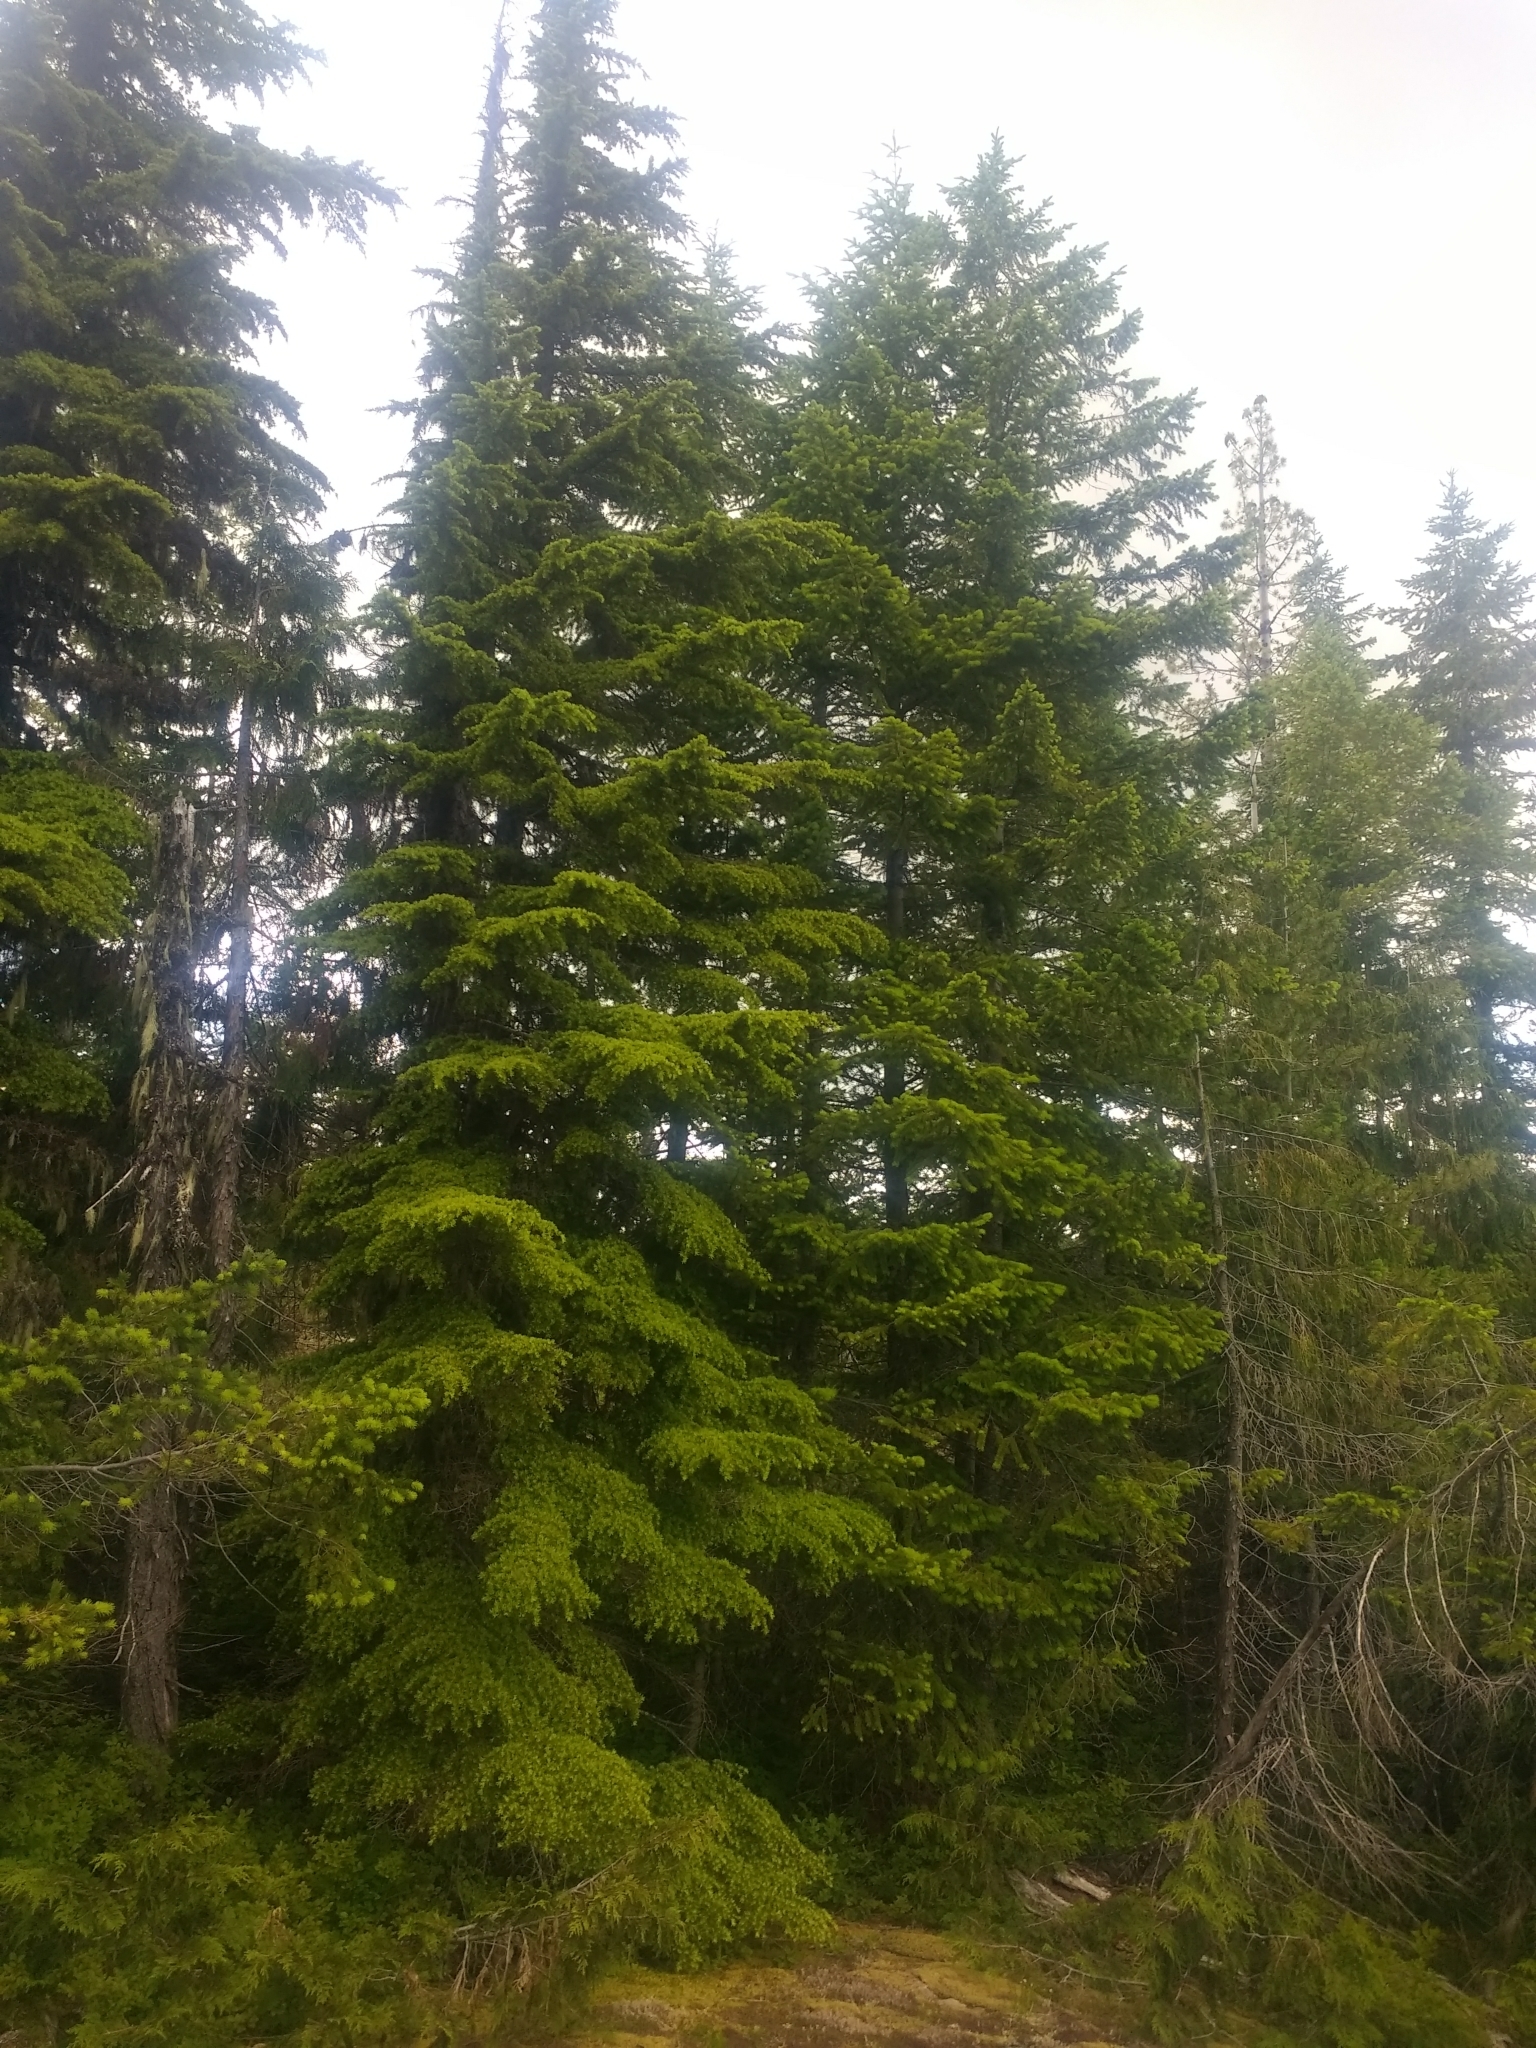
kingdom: Plantae
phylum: Tracheophyta
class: Pinopsida
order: Pinales
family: Pinaceae
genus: Tsuga
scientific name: Tsuga mertensiana
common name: Mountain hemlock
